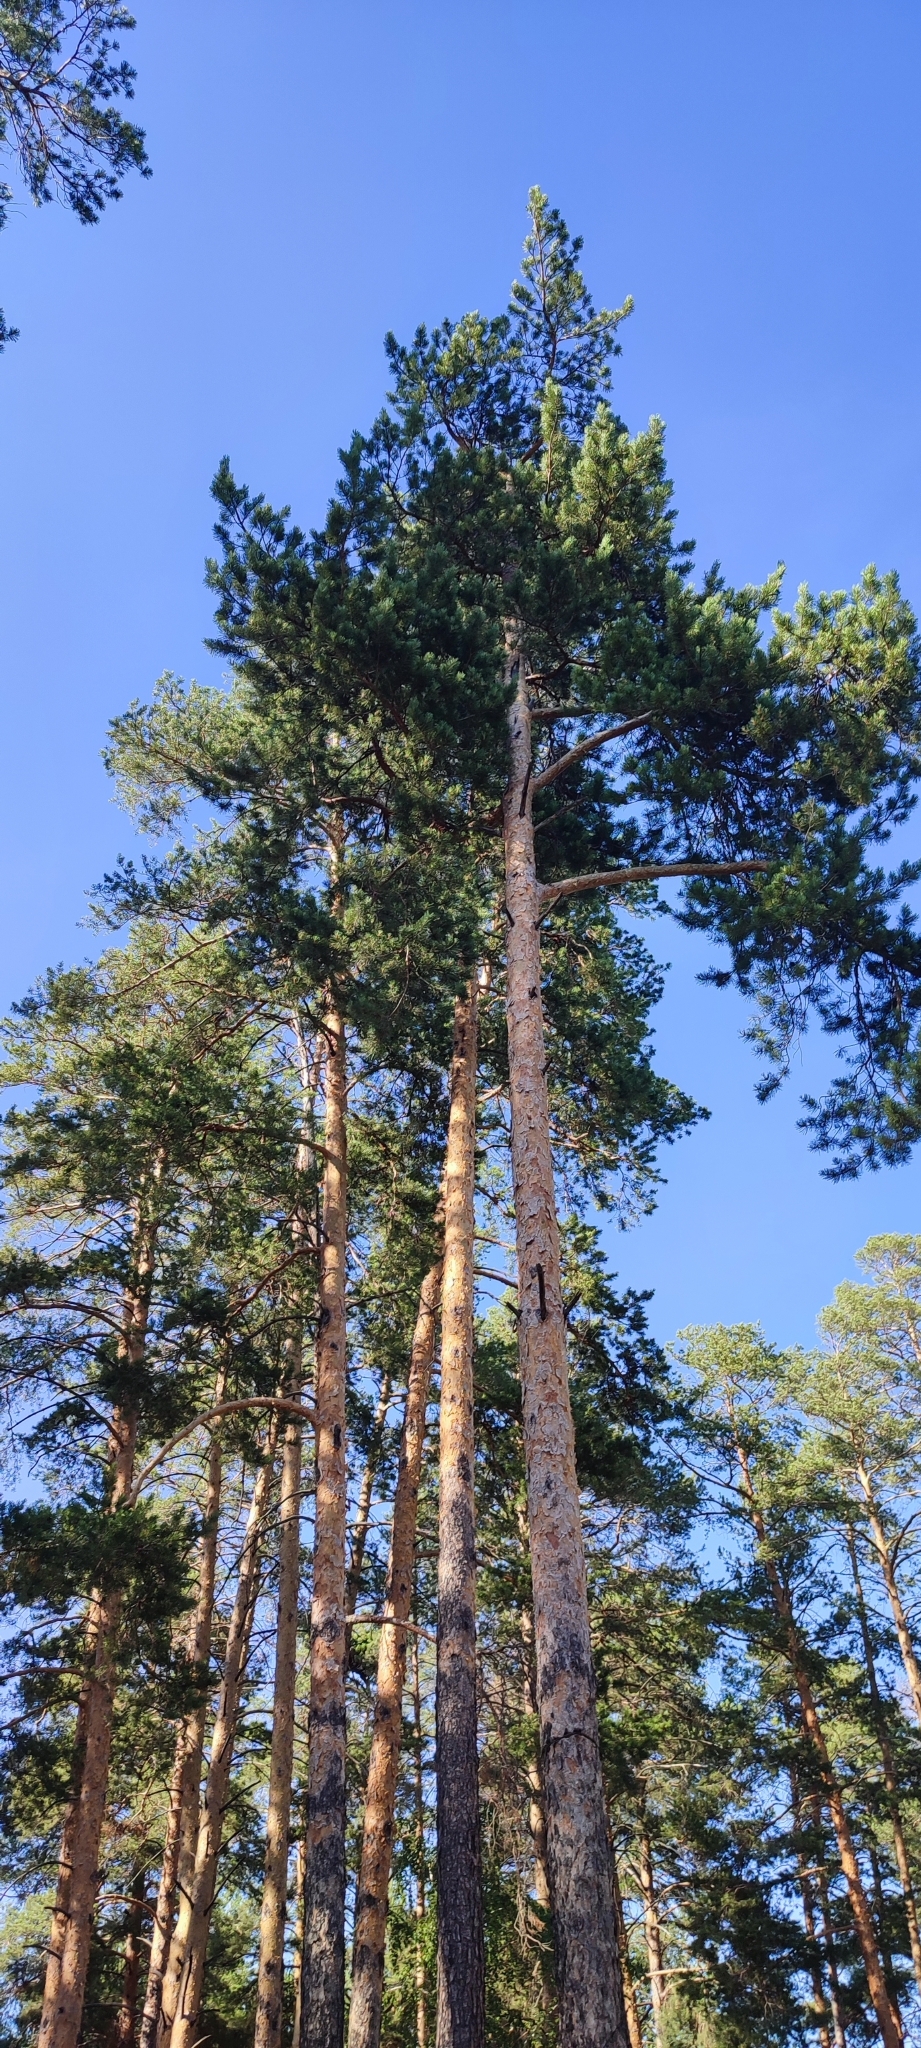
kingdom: Plantae
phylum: Tracheophyta
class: Pinopsida
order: Pinales
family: Pinaceae
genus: Pinus
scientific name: Pinus sylvestris
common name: Scots pine
